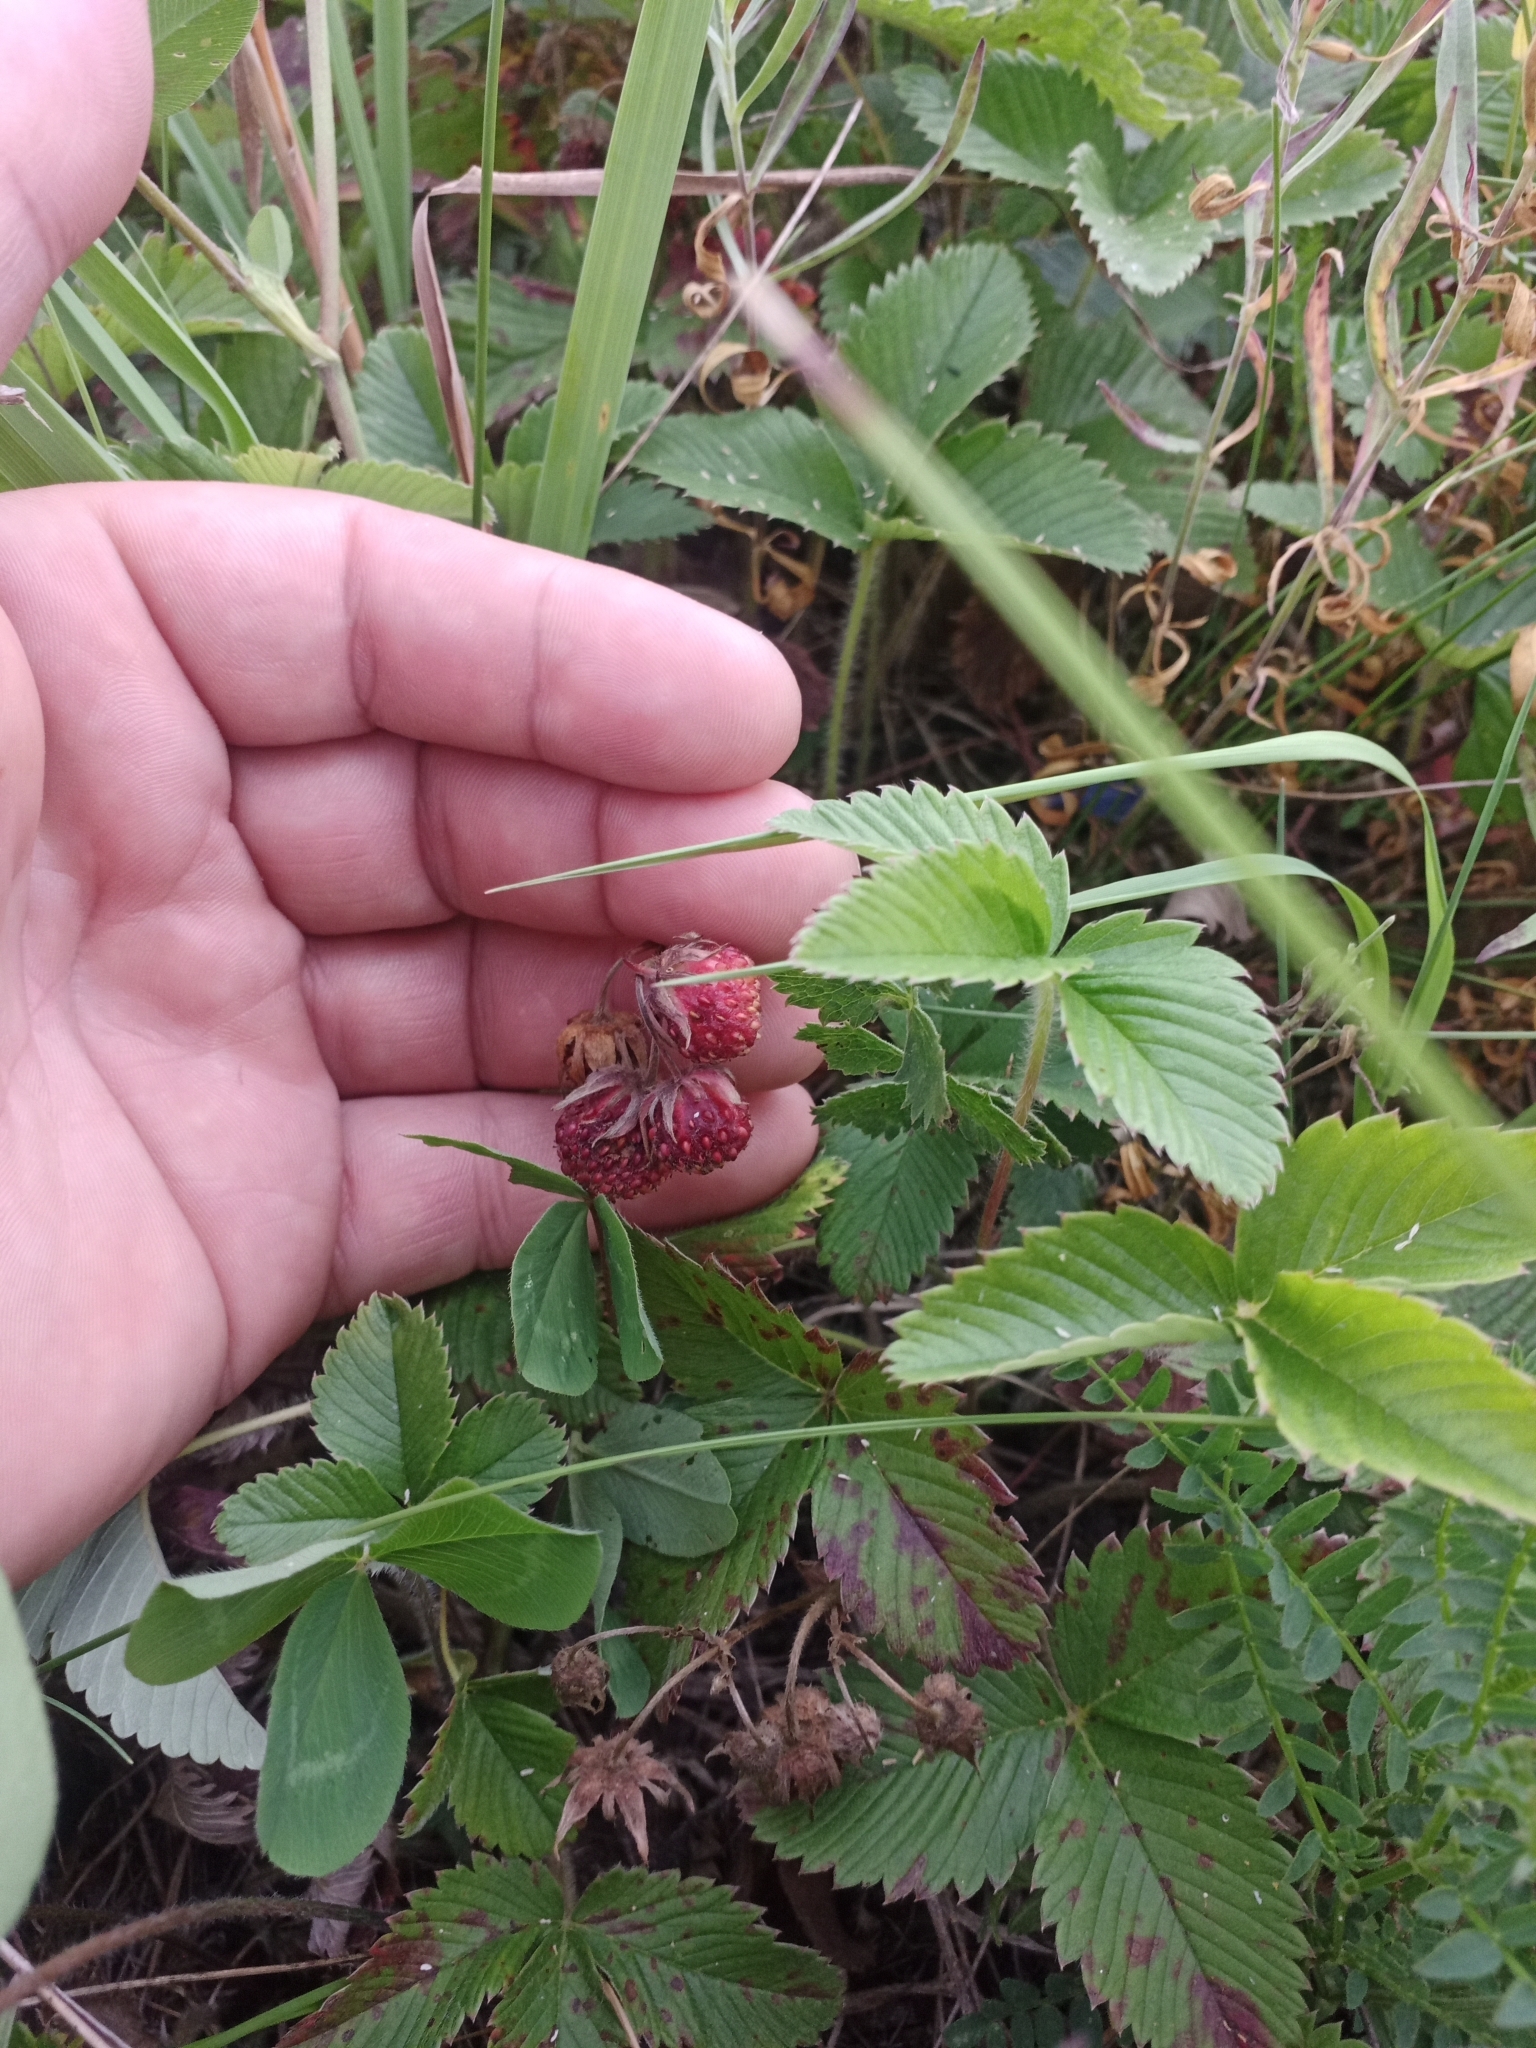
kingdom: Plantae
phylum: Tracheophyta
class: Magnoliopsida
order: Rosales
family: Rosaceae
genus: Fragaria
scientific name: Fragaria viridis
